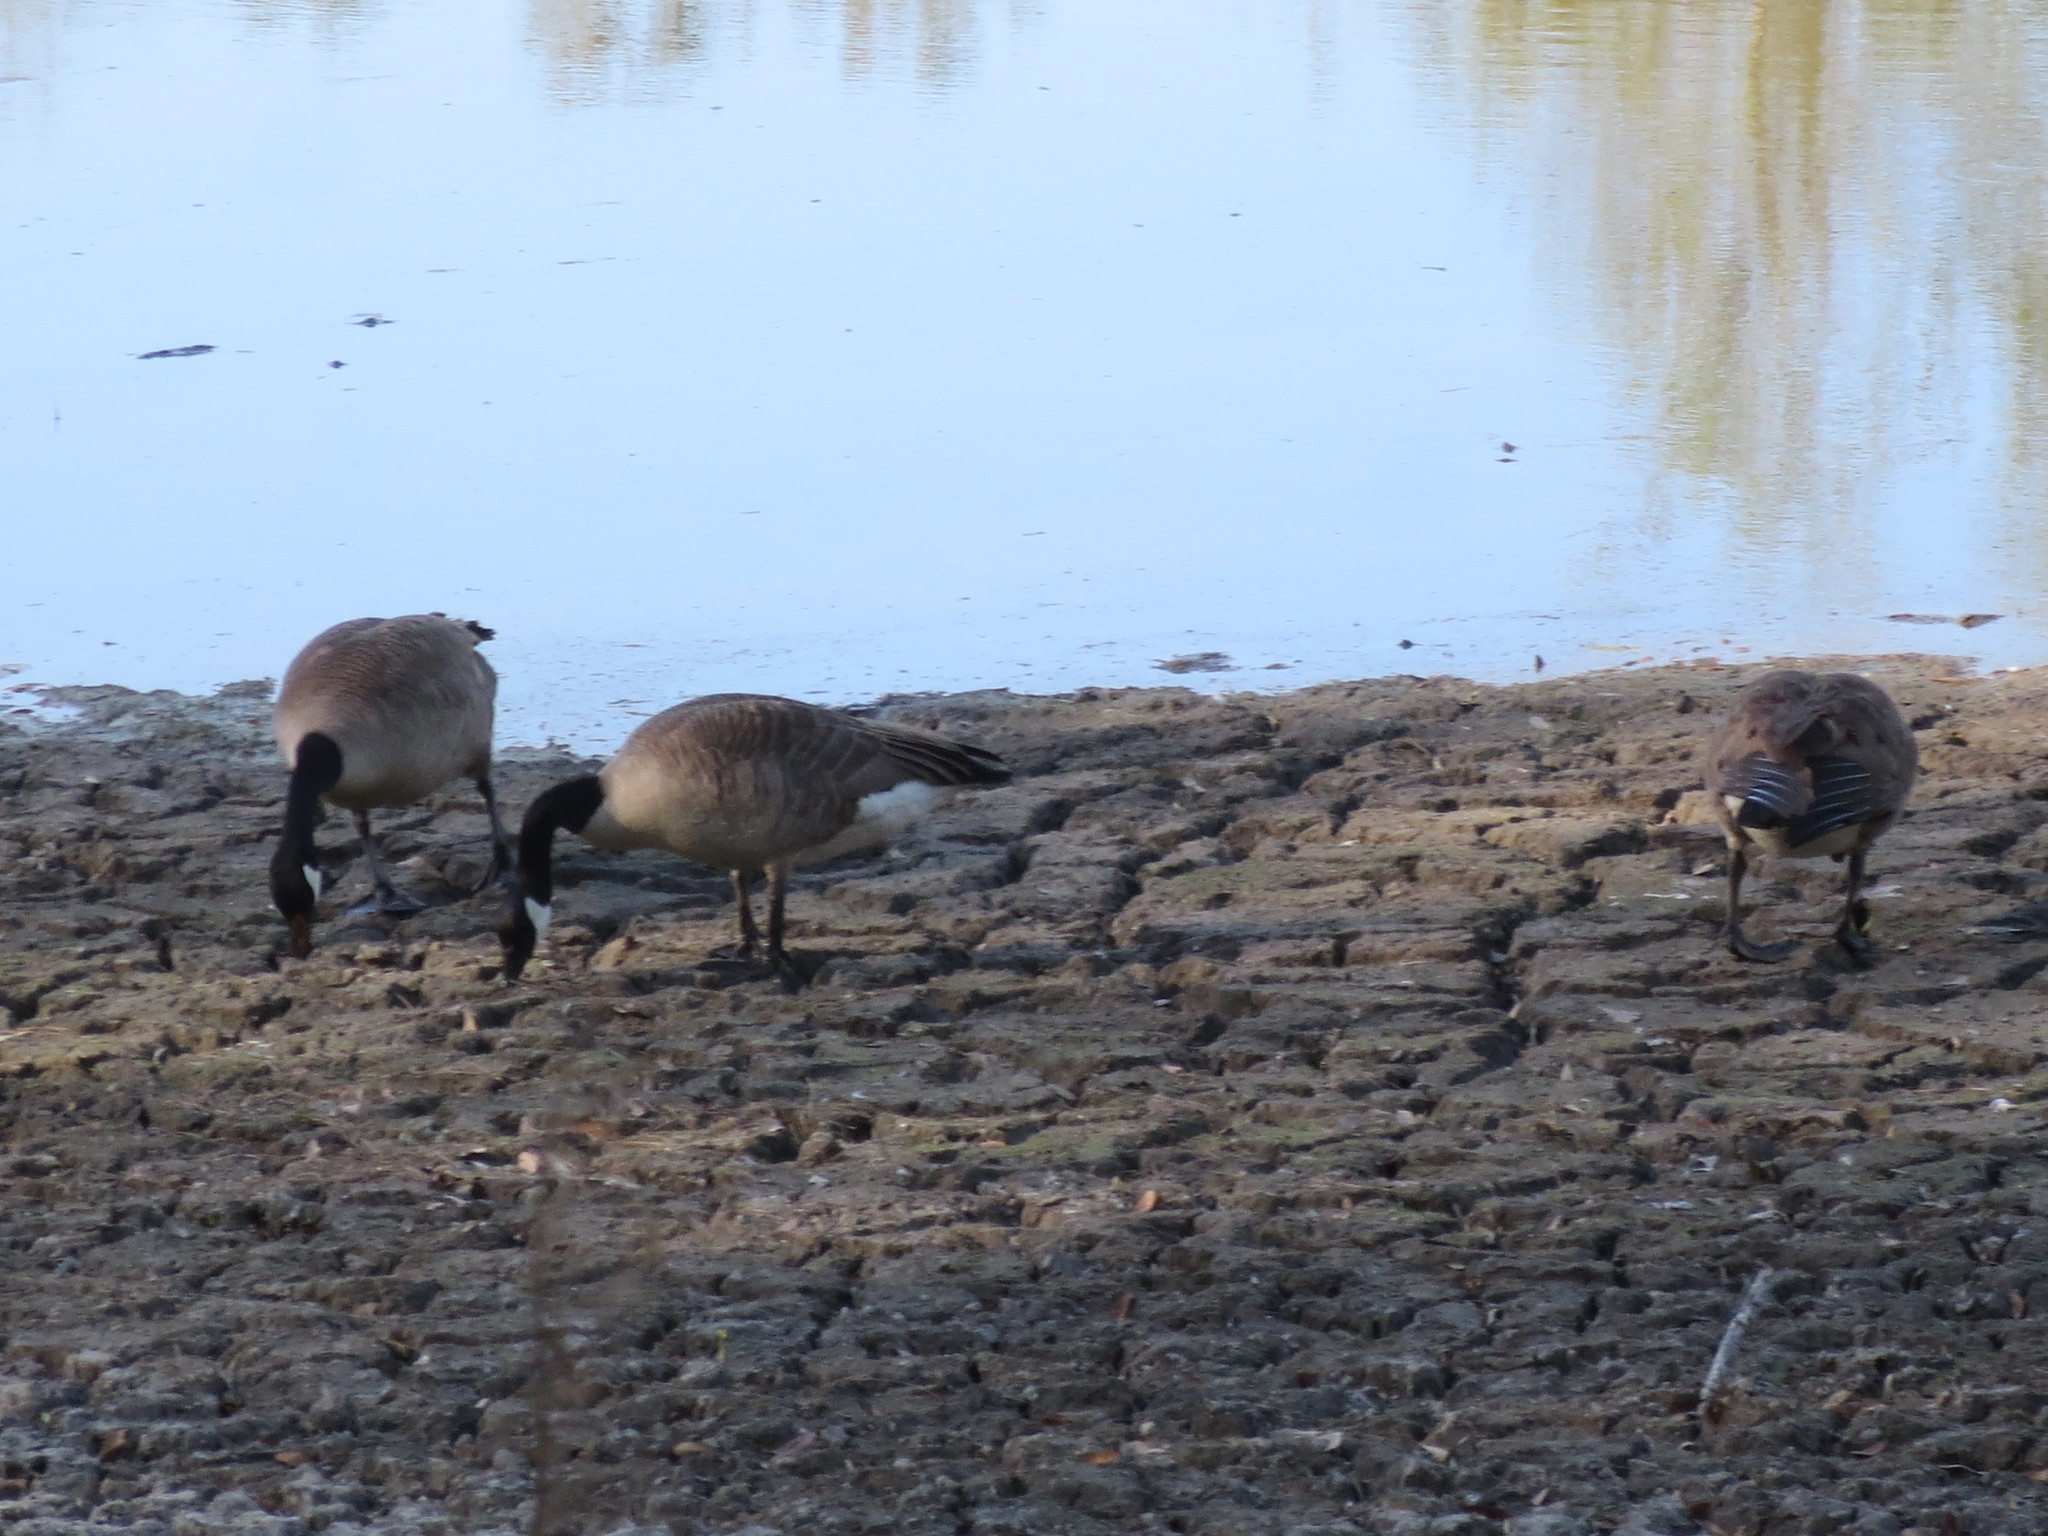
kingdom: Animalia
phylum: Chordata
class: Aves
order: Anseriformes
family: Anatidae
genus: Branta
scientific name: Branta canadensis
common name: Canada goose
